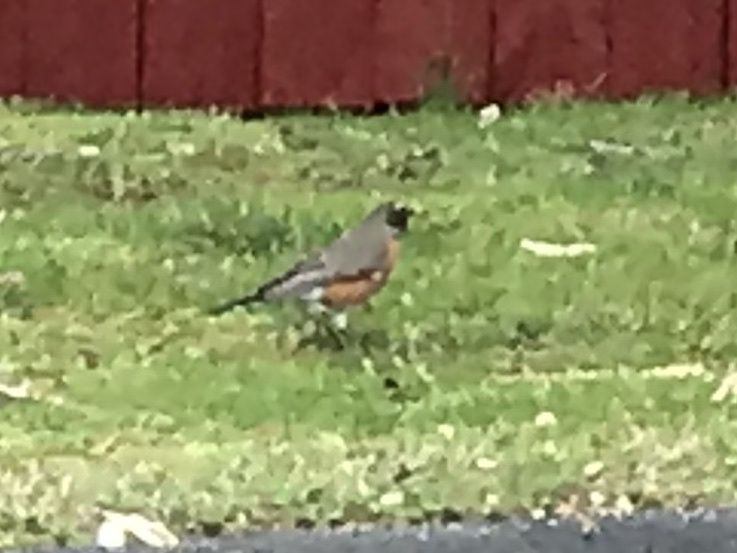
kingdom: Animalia
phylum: Chordata
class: Aves
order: Passeriformes
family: Turdidae
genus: Turdus
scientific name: Turdus migratorius
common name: American robin
